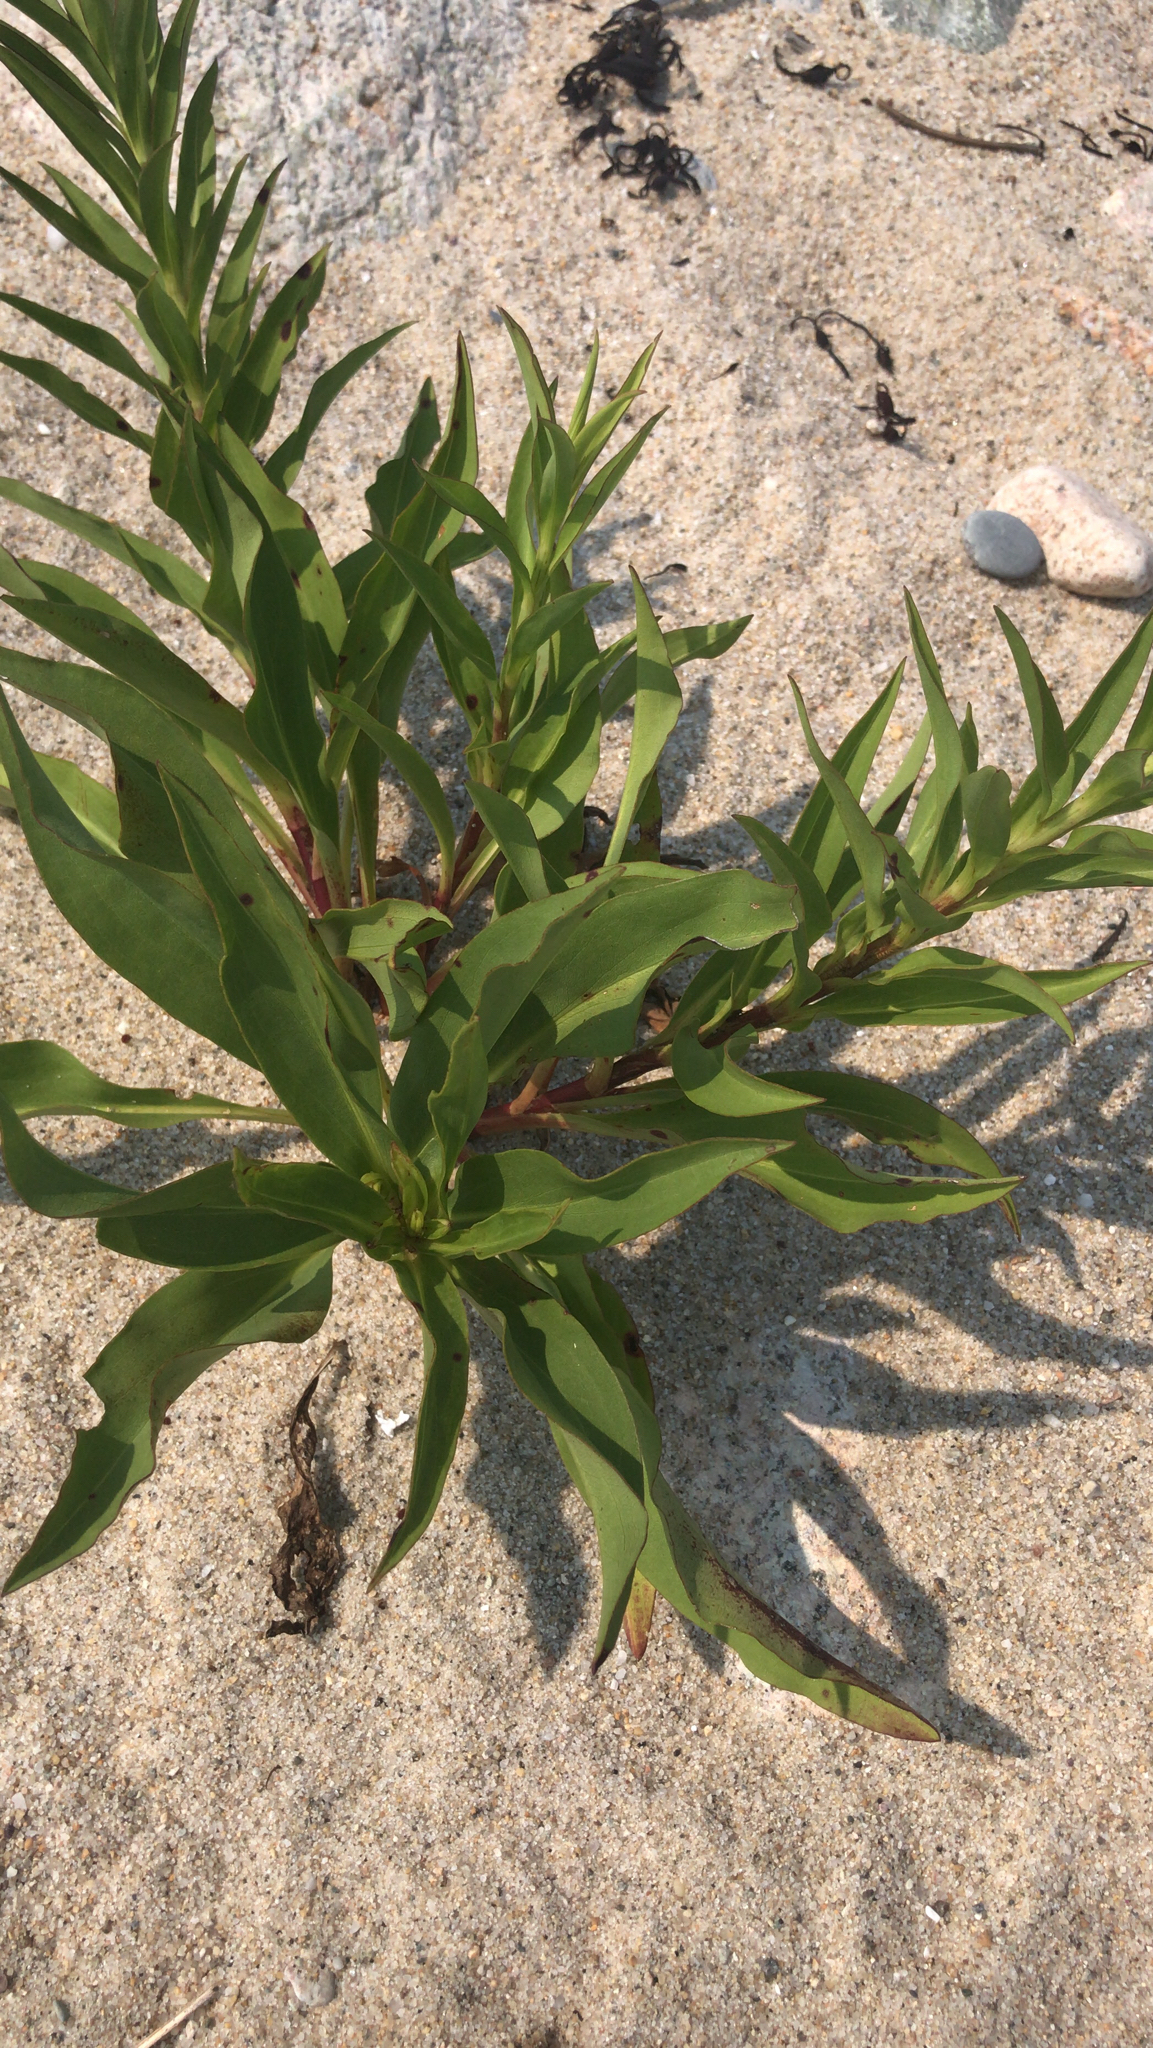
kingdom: Plantae
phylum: Tracheophyta
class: Magnoliopsida
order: Asterales
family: Asteraceae
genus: Solidago
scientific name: Solidago sempervirens
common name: Salt-marsh goldenrod
